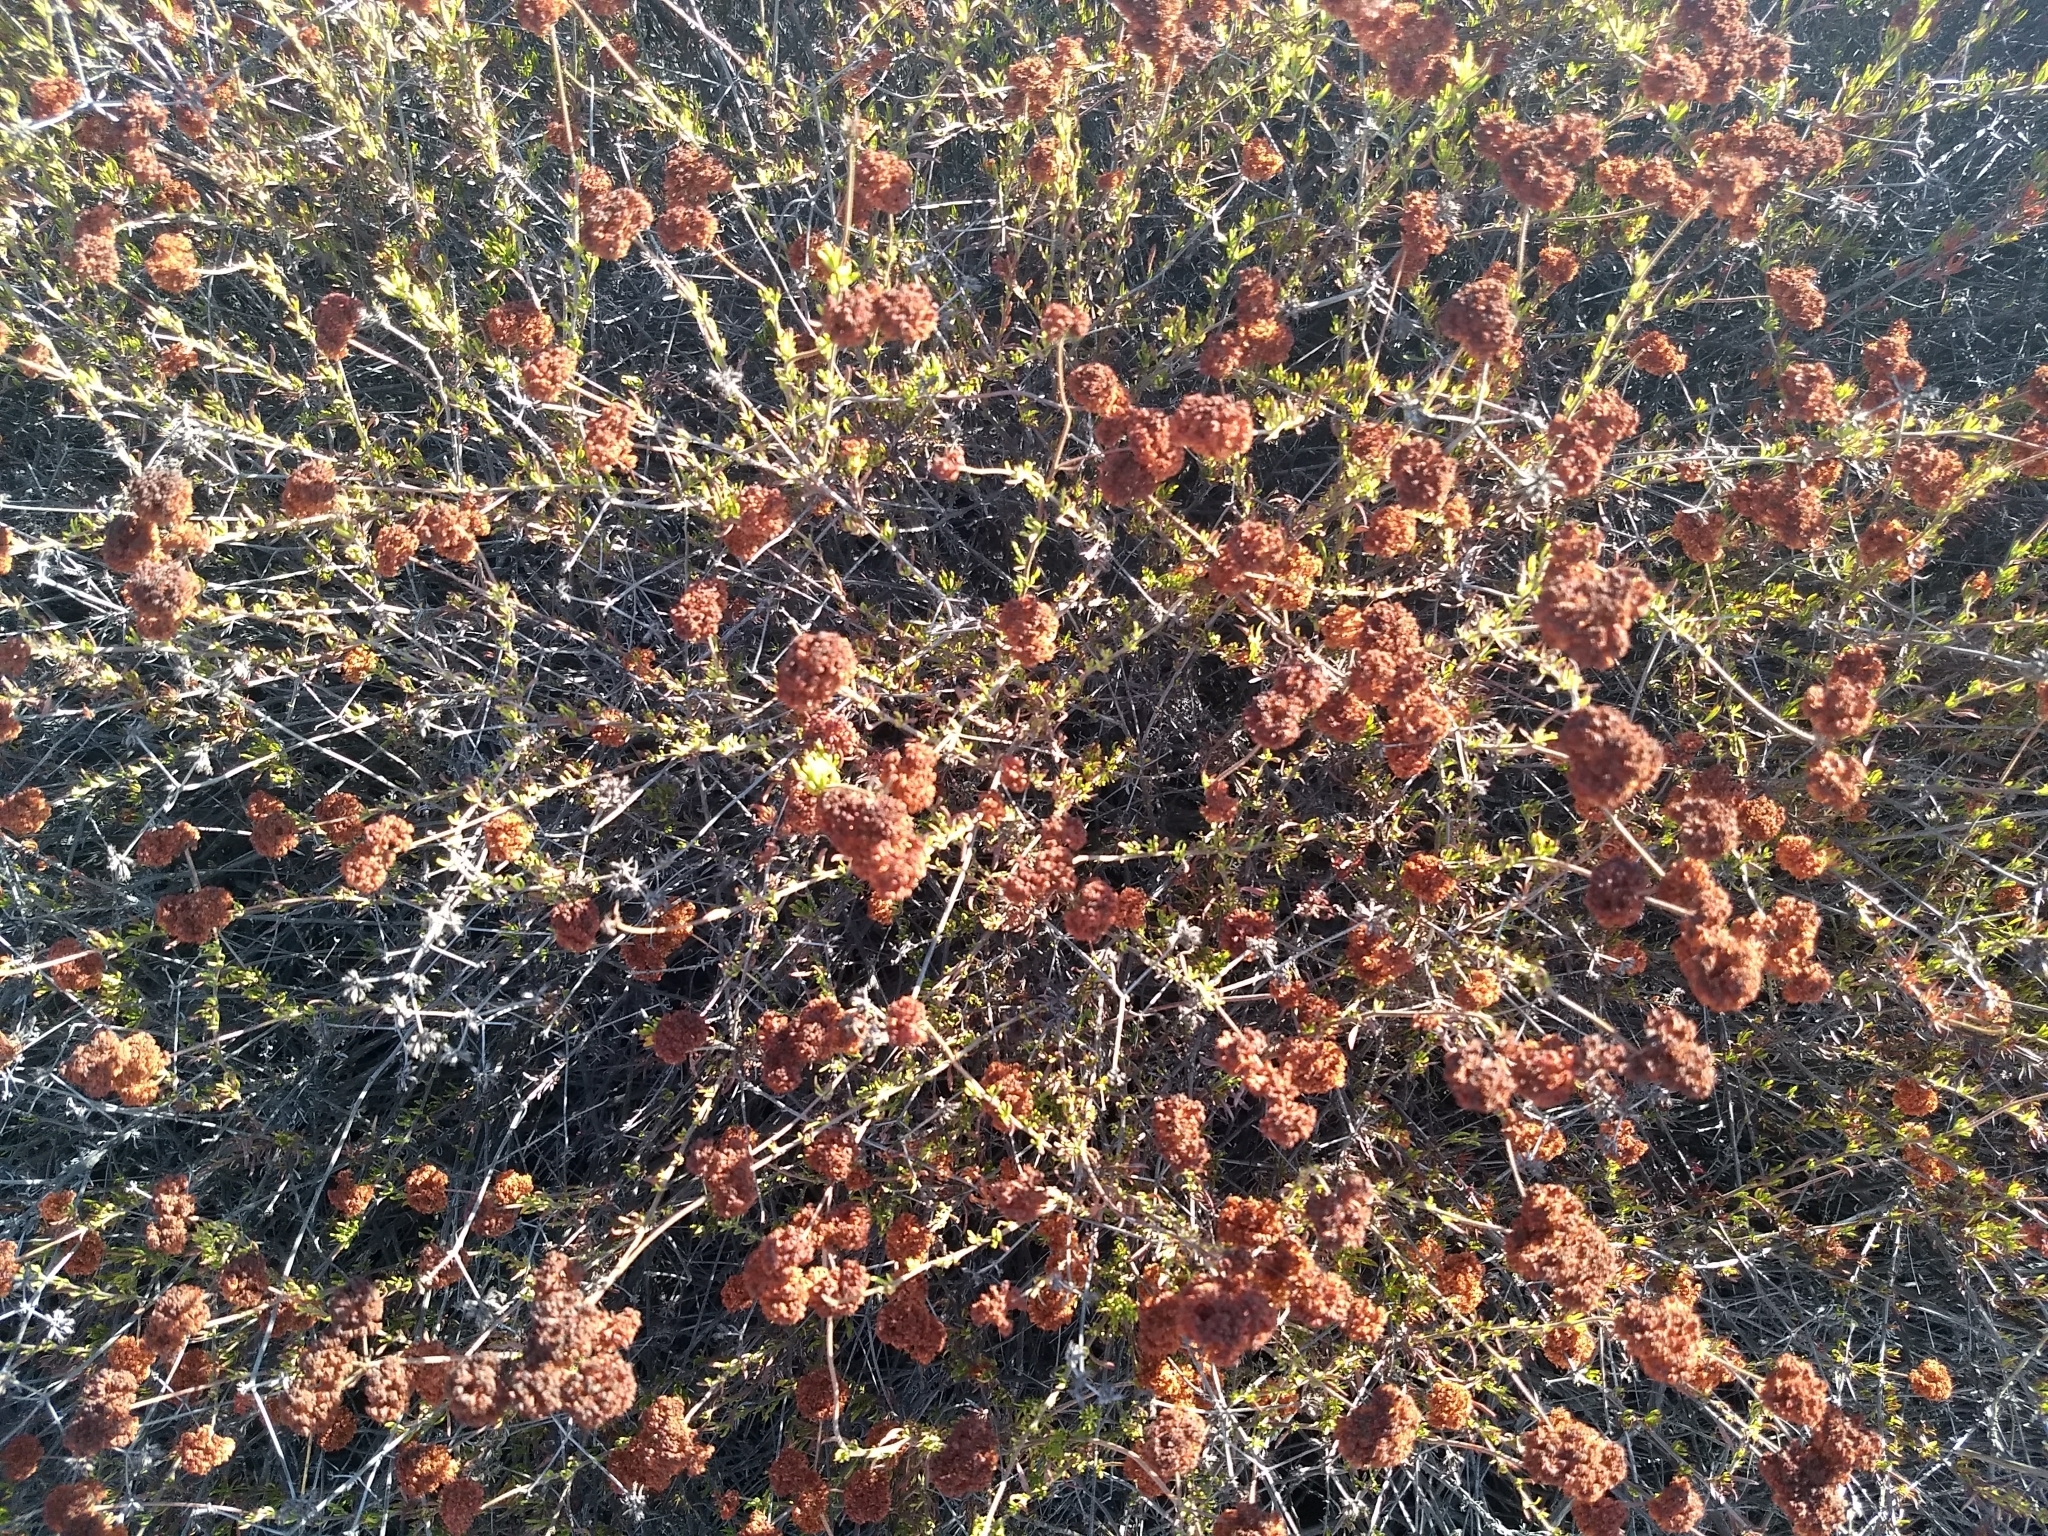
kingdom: Plantae
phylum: Tracheophyta
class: Magnoliopsida
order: Caryophyllales
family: Polygonaceae
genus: Eriogonum
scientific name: Eriogonum fasciculatum
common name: California wild buckwheat
